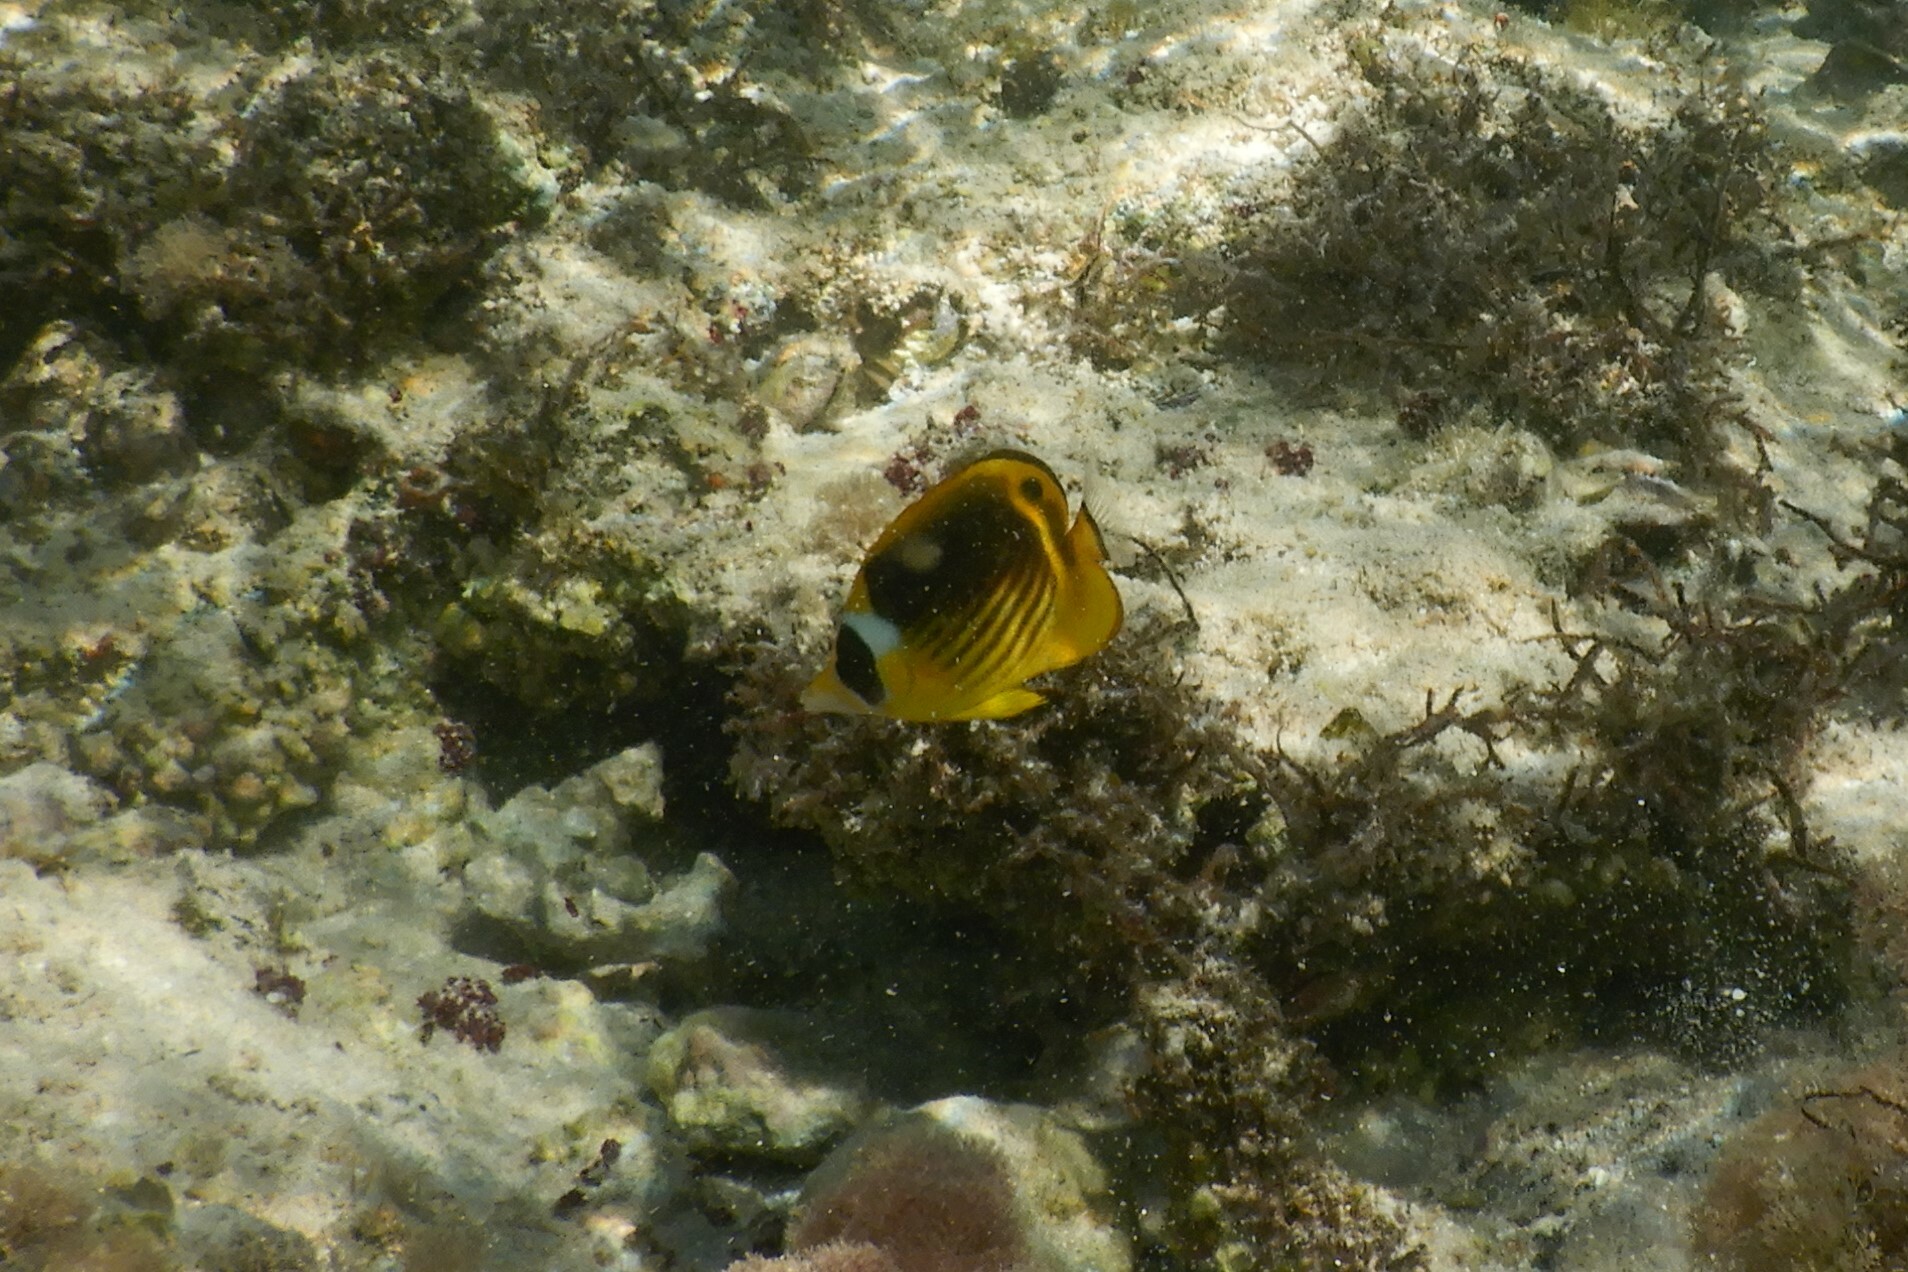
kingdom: Animalia
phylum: Chordata
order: Perciformes
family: Chaetodontidae
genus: Chaetodon
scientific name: Chaetodon fasciatus
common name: Diagonal butterflyfish
